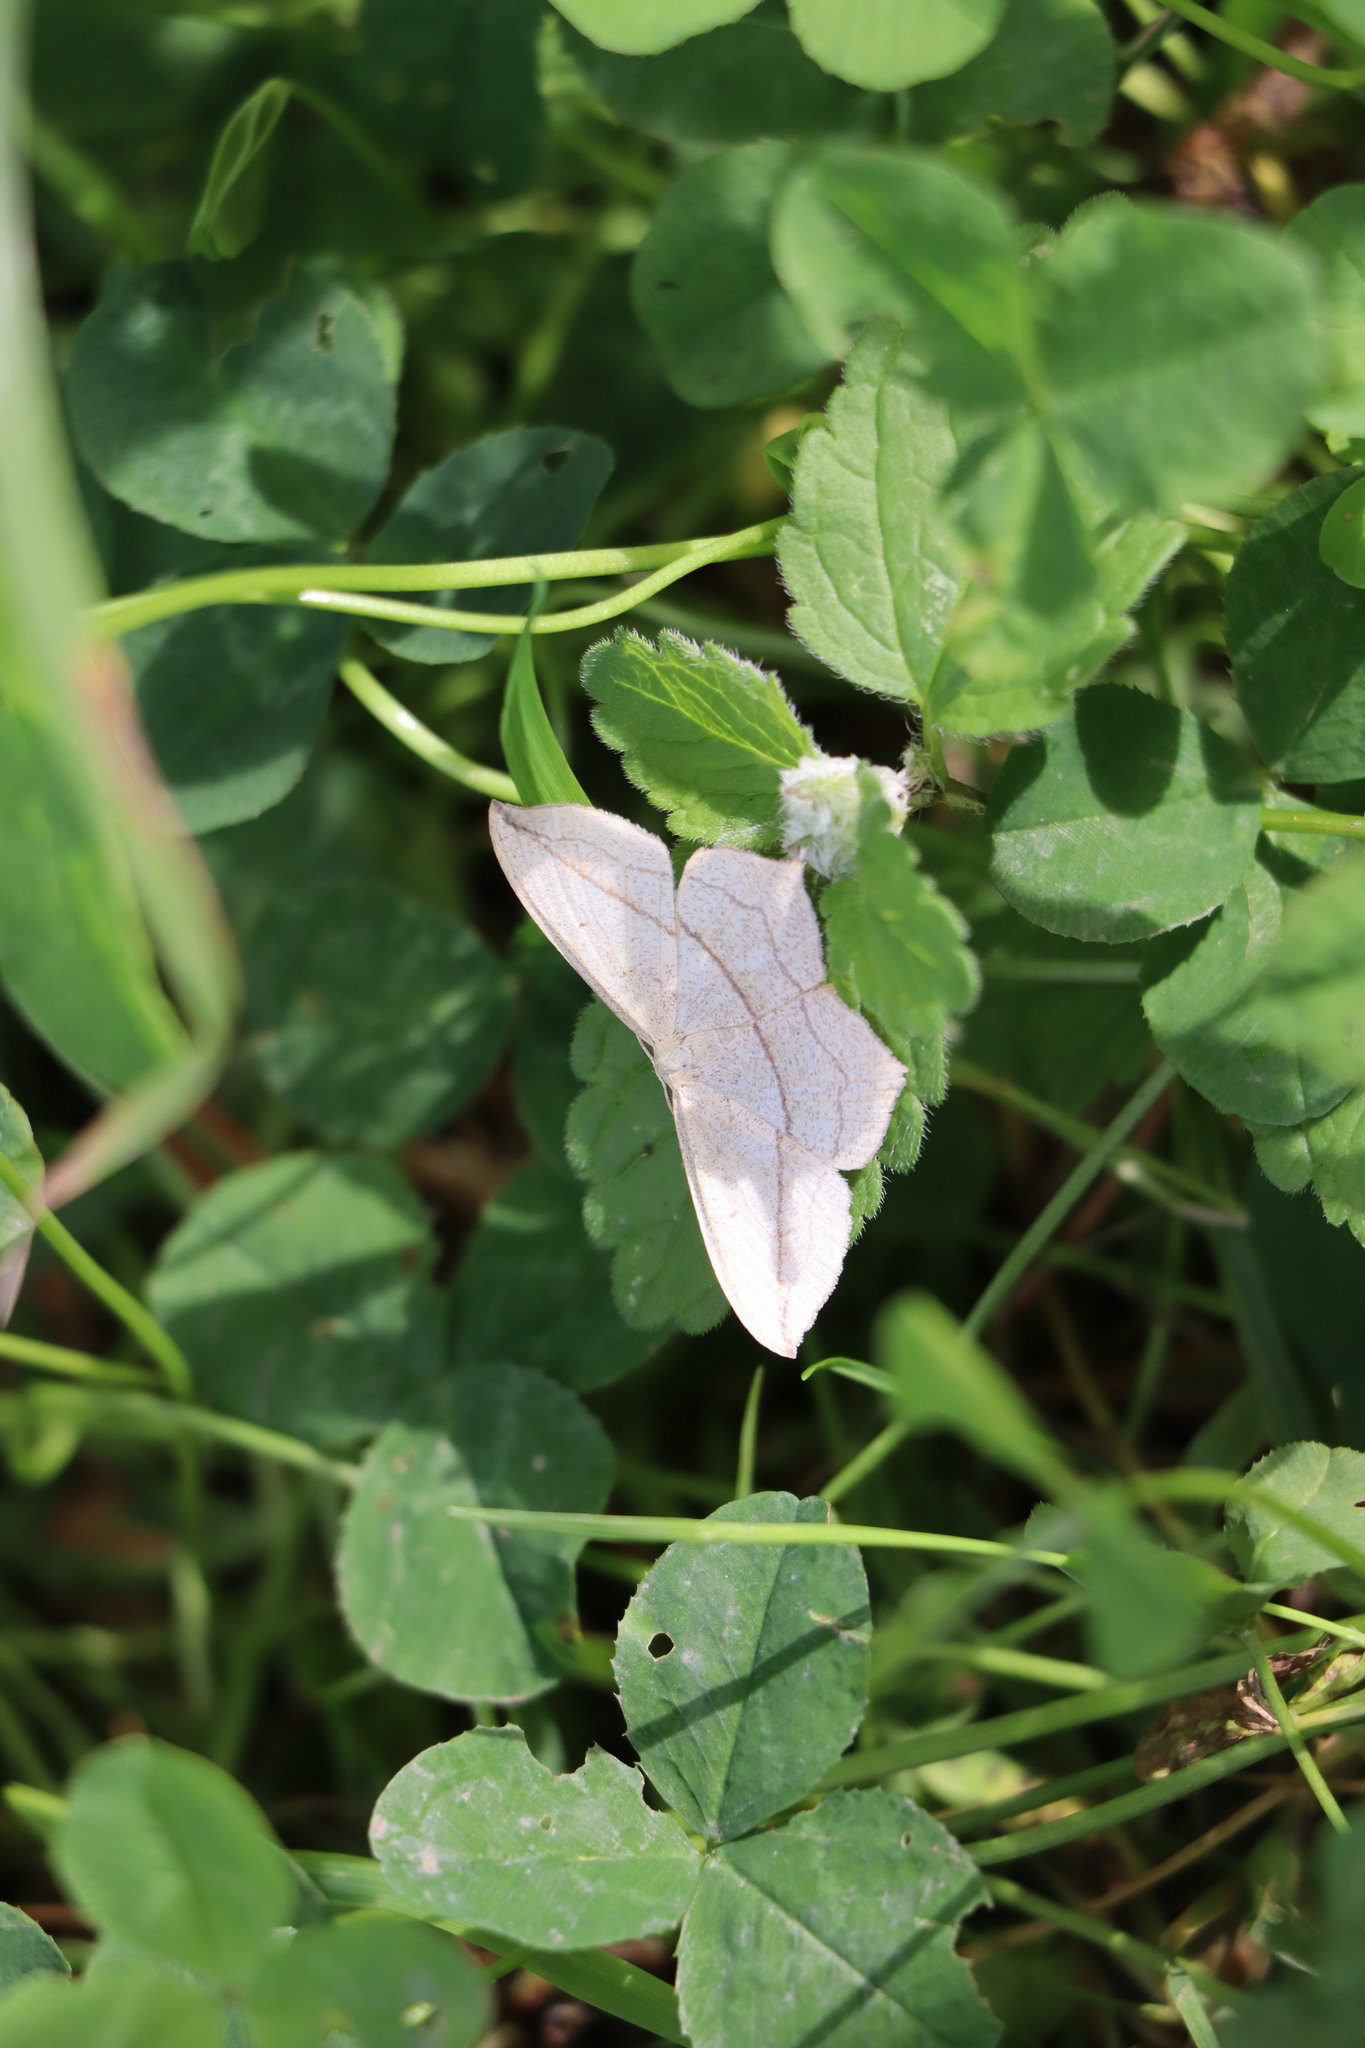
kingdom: Animalia
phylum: Arthropoda
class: Insecta
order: Lepidoptera
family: Geometridae
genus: Timandra
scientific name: Timandra comae
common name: Blood-vein
